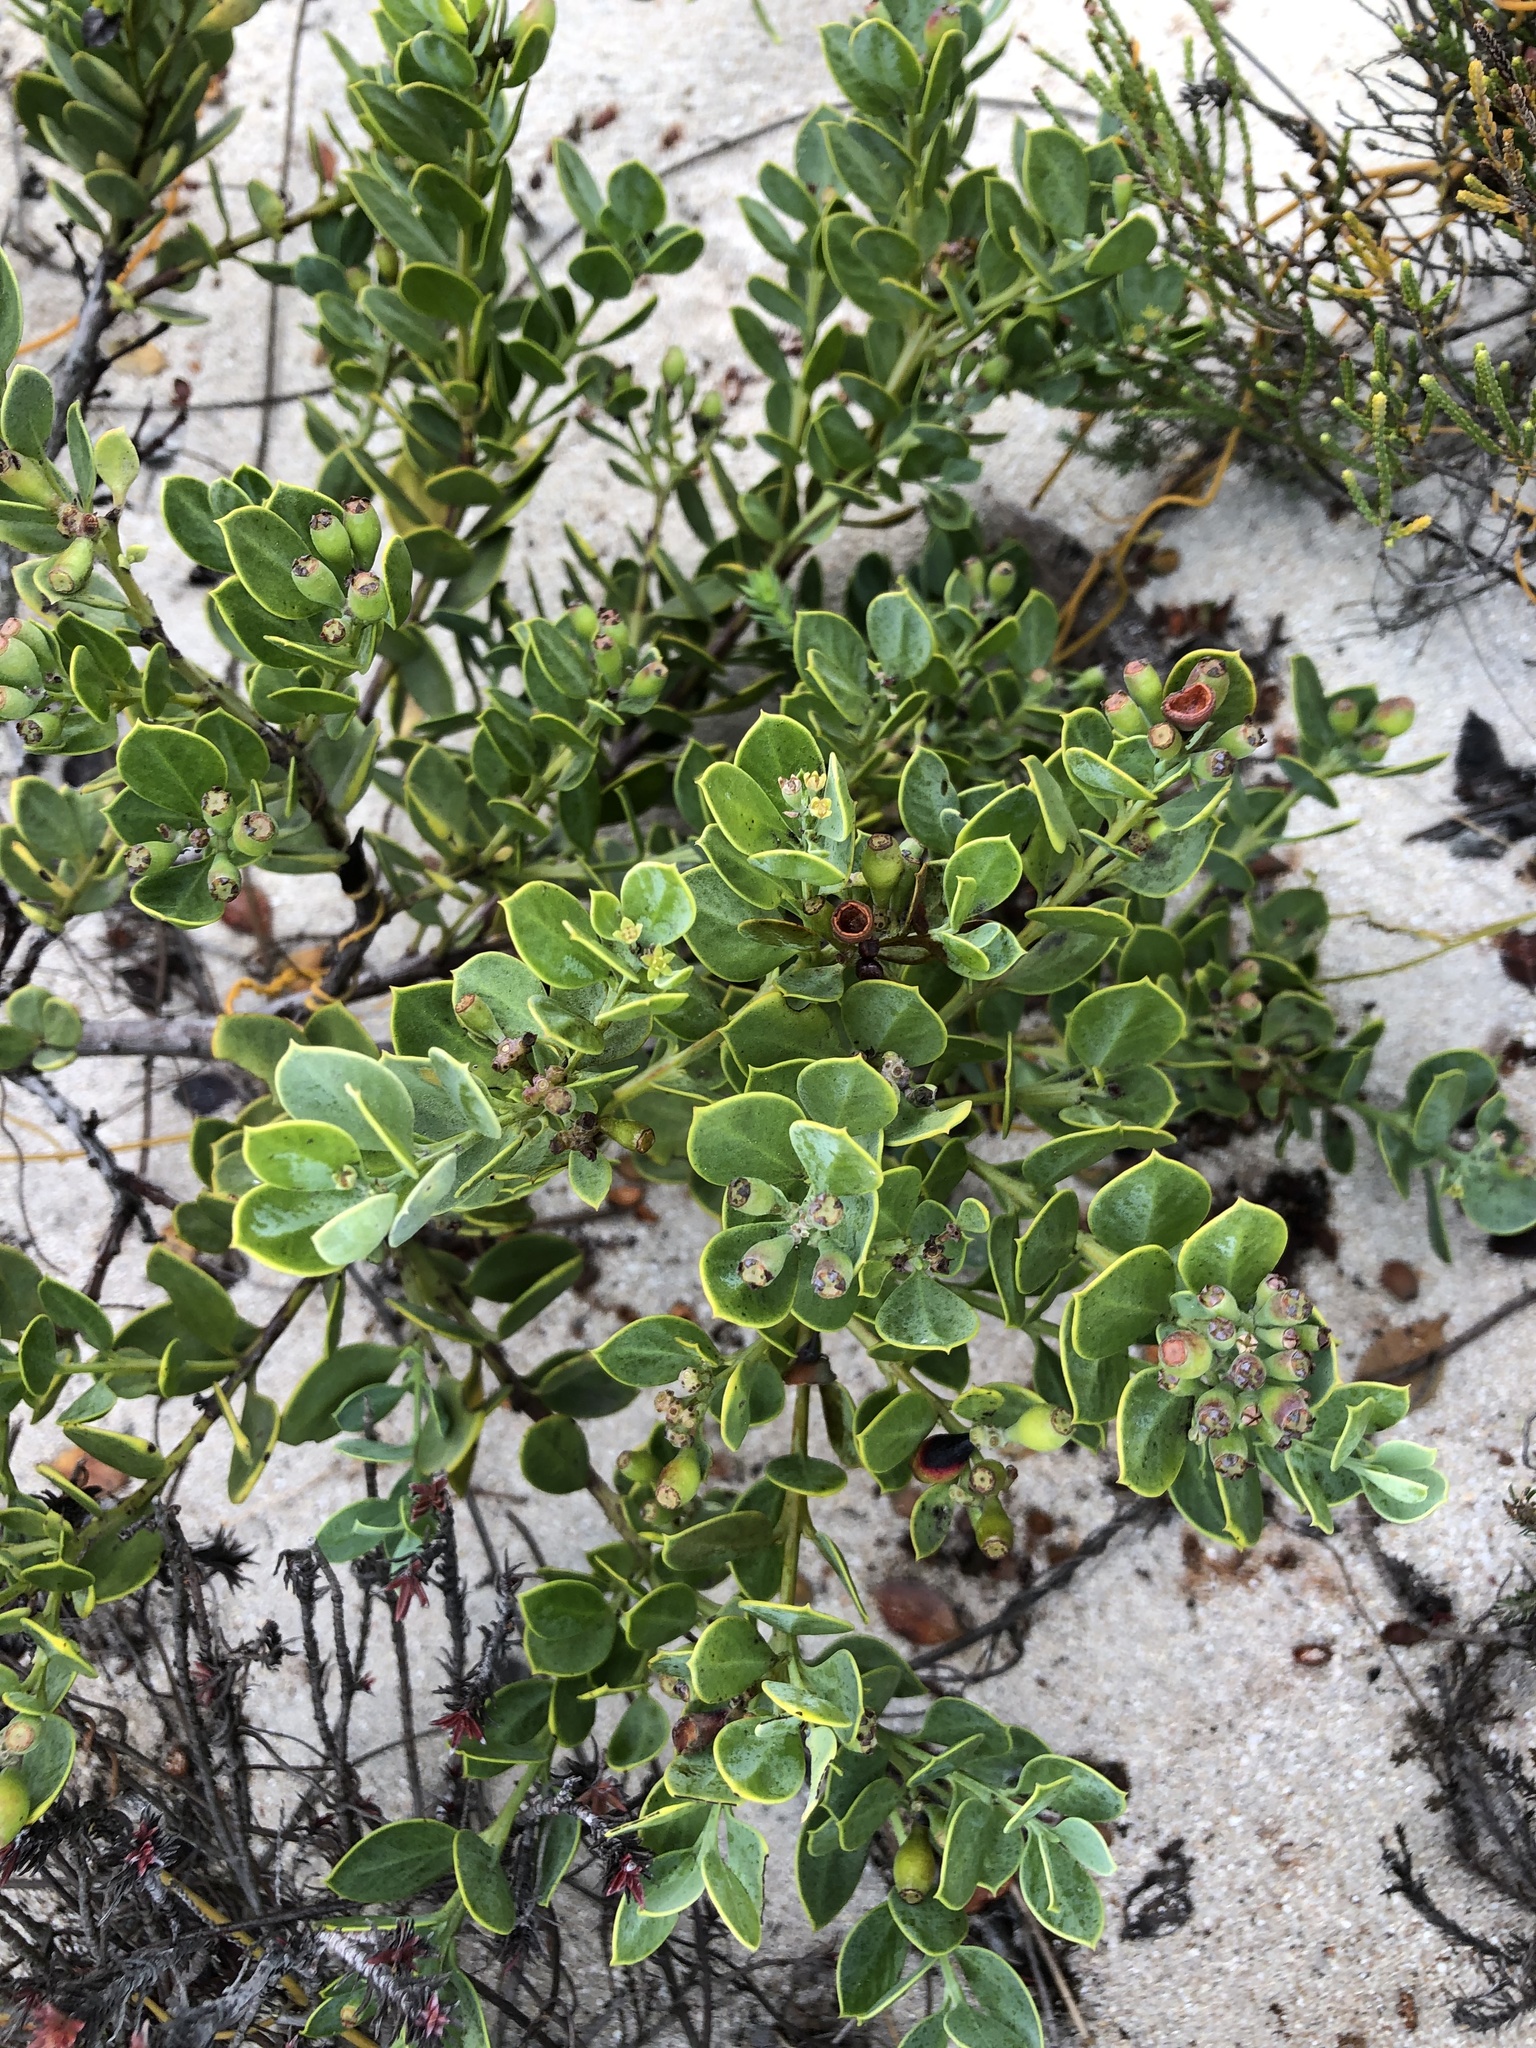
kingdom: Plantae
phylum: Tracheophyta
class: Magnoliopsida
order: Santalales
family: Santalaceae
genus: Osyris
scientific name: Osyris compressa
